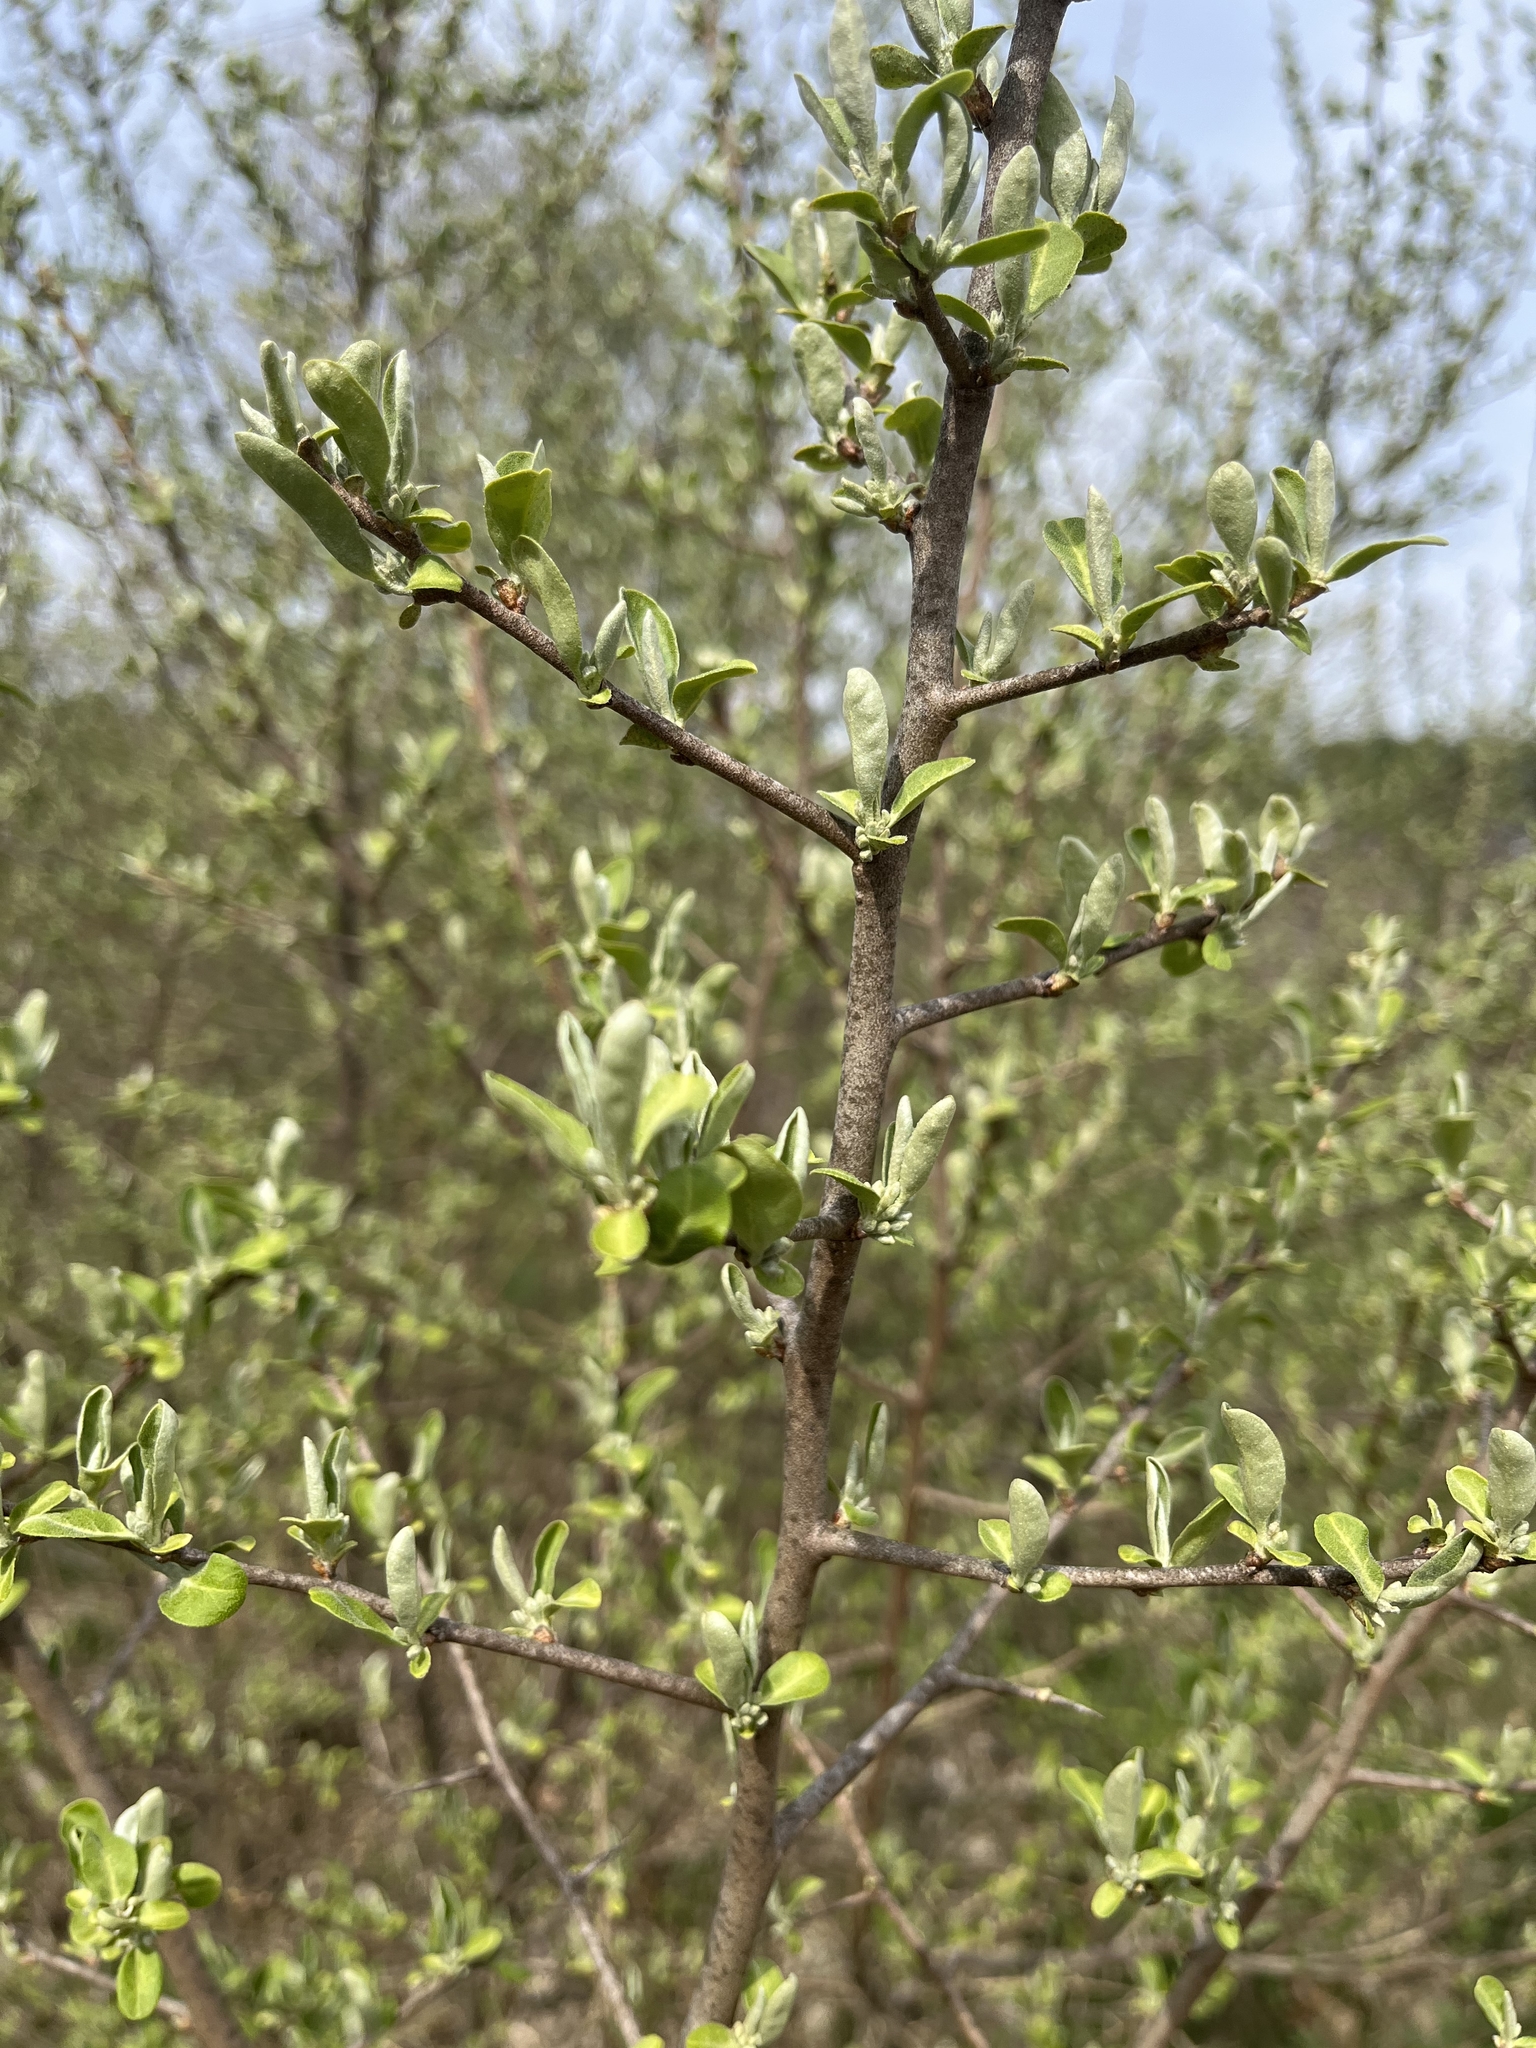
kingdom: Plantae
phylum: Tracheophyta
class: Magnoliopsida
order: Rosales
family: Elaeagnaceae
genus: Elaeagnus
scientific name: Elaeagnus umbellata
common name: Autumn olive
